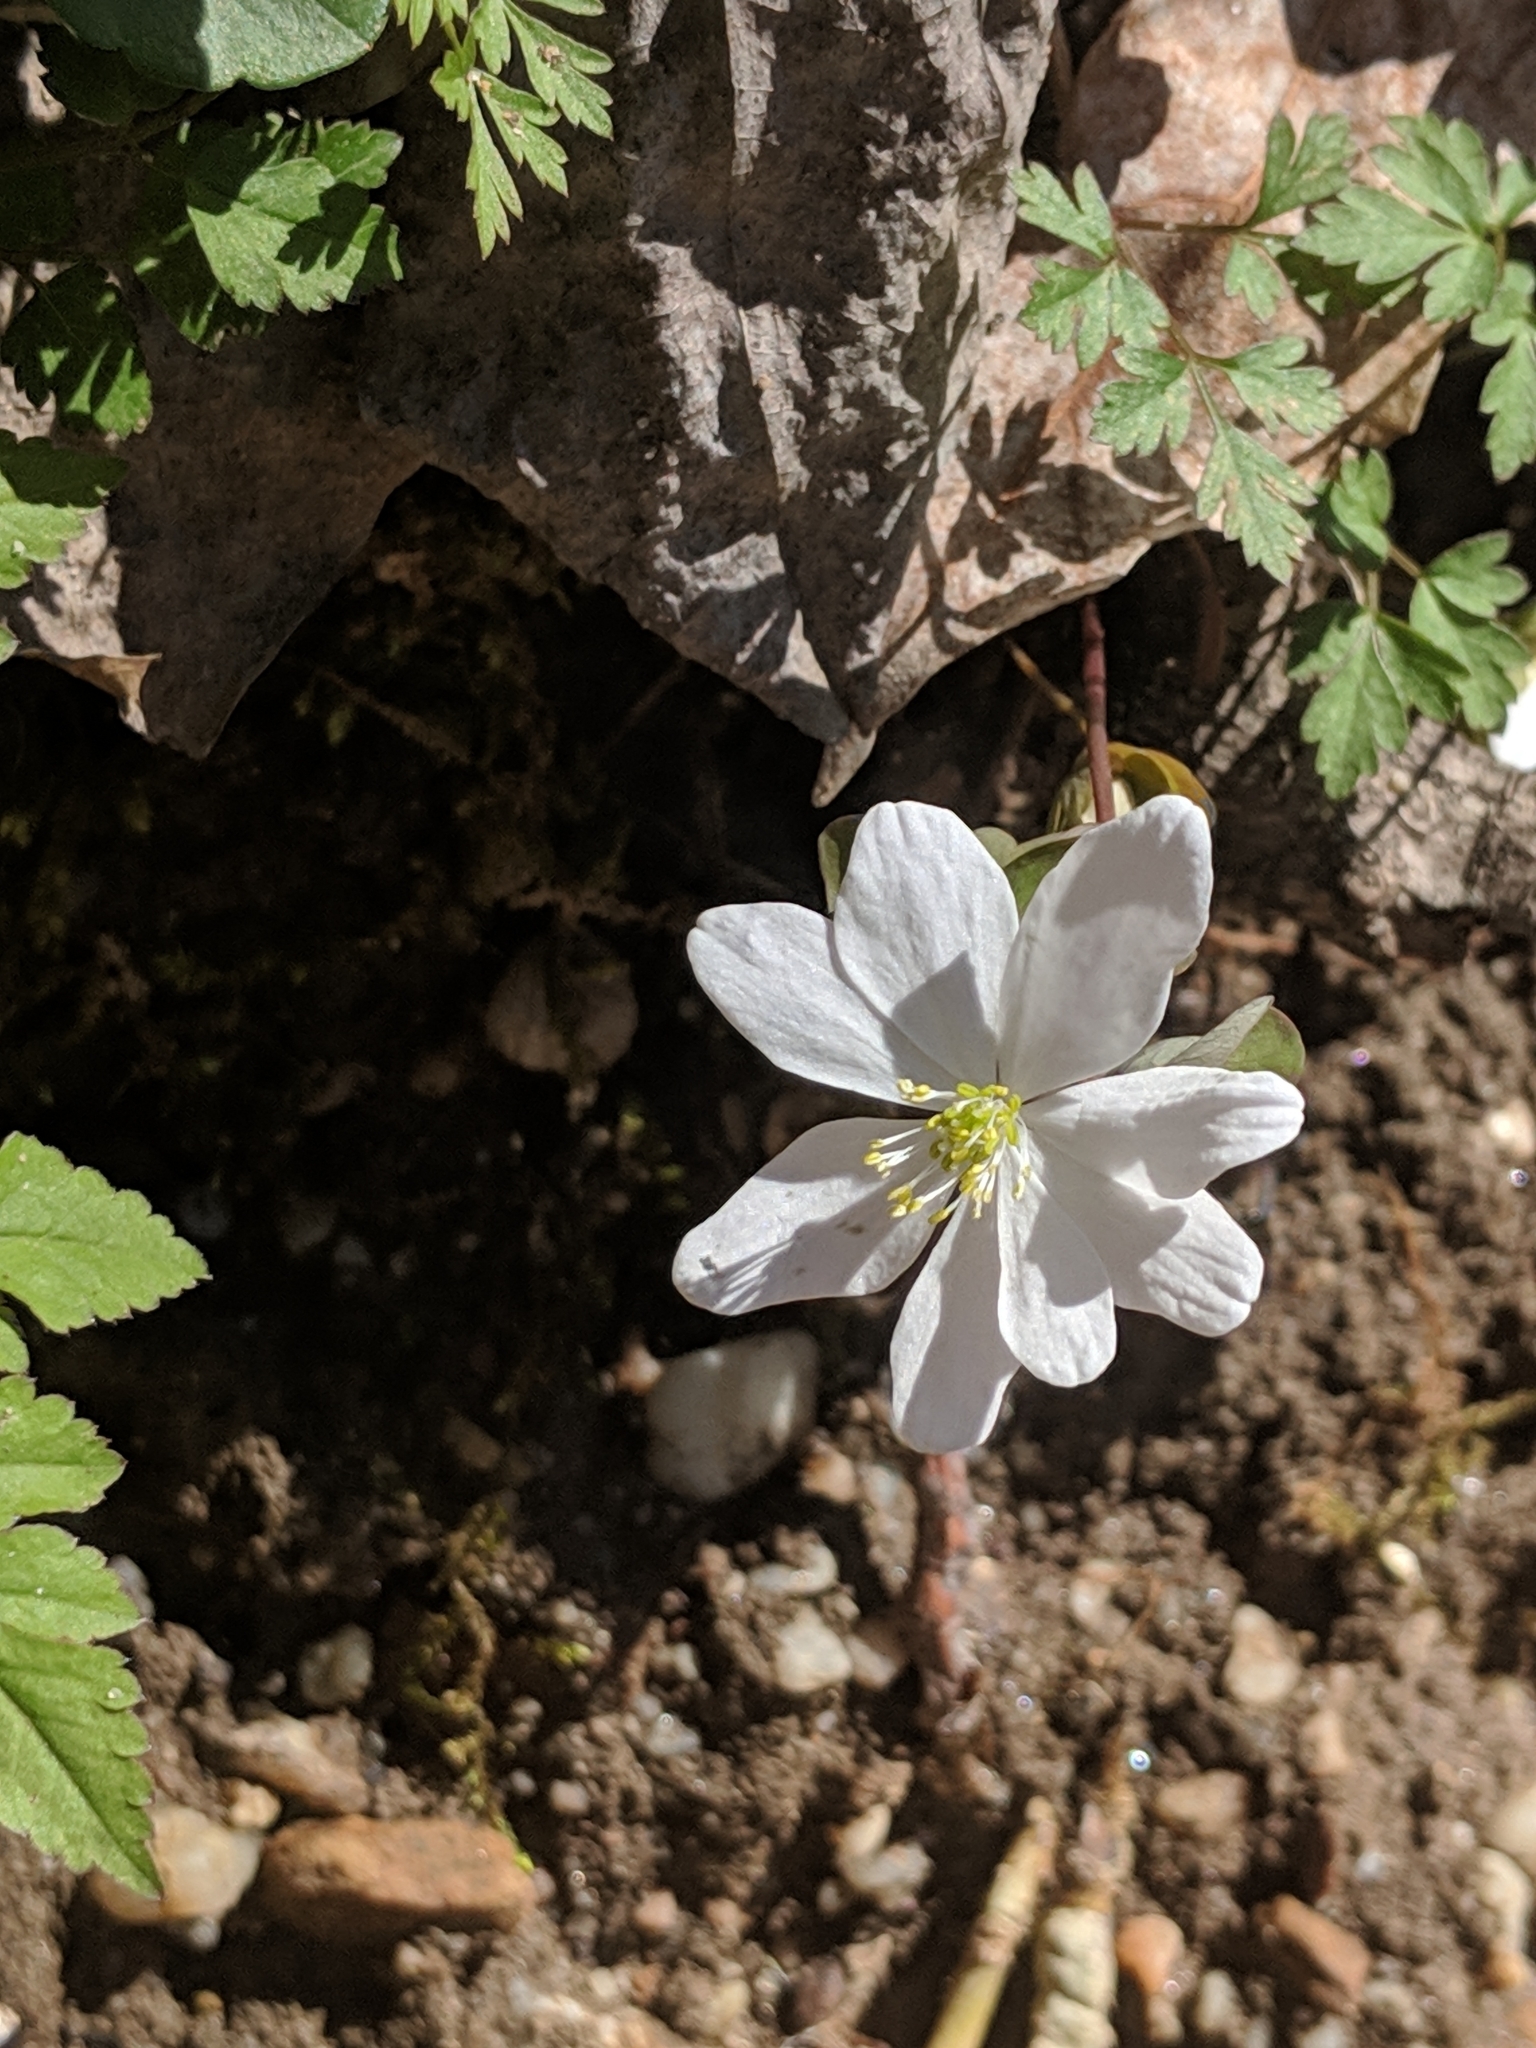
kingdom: Plantae
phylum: Tracheophyta
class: Magnoliopsida
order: Ranunculales
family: Ranunculaceae
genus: Thalictrum
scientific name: Thalictrum thalictroides
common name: Rue-anemone
